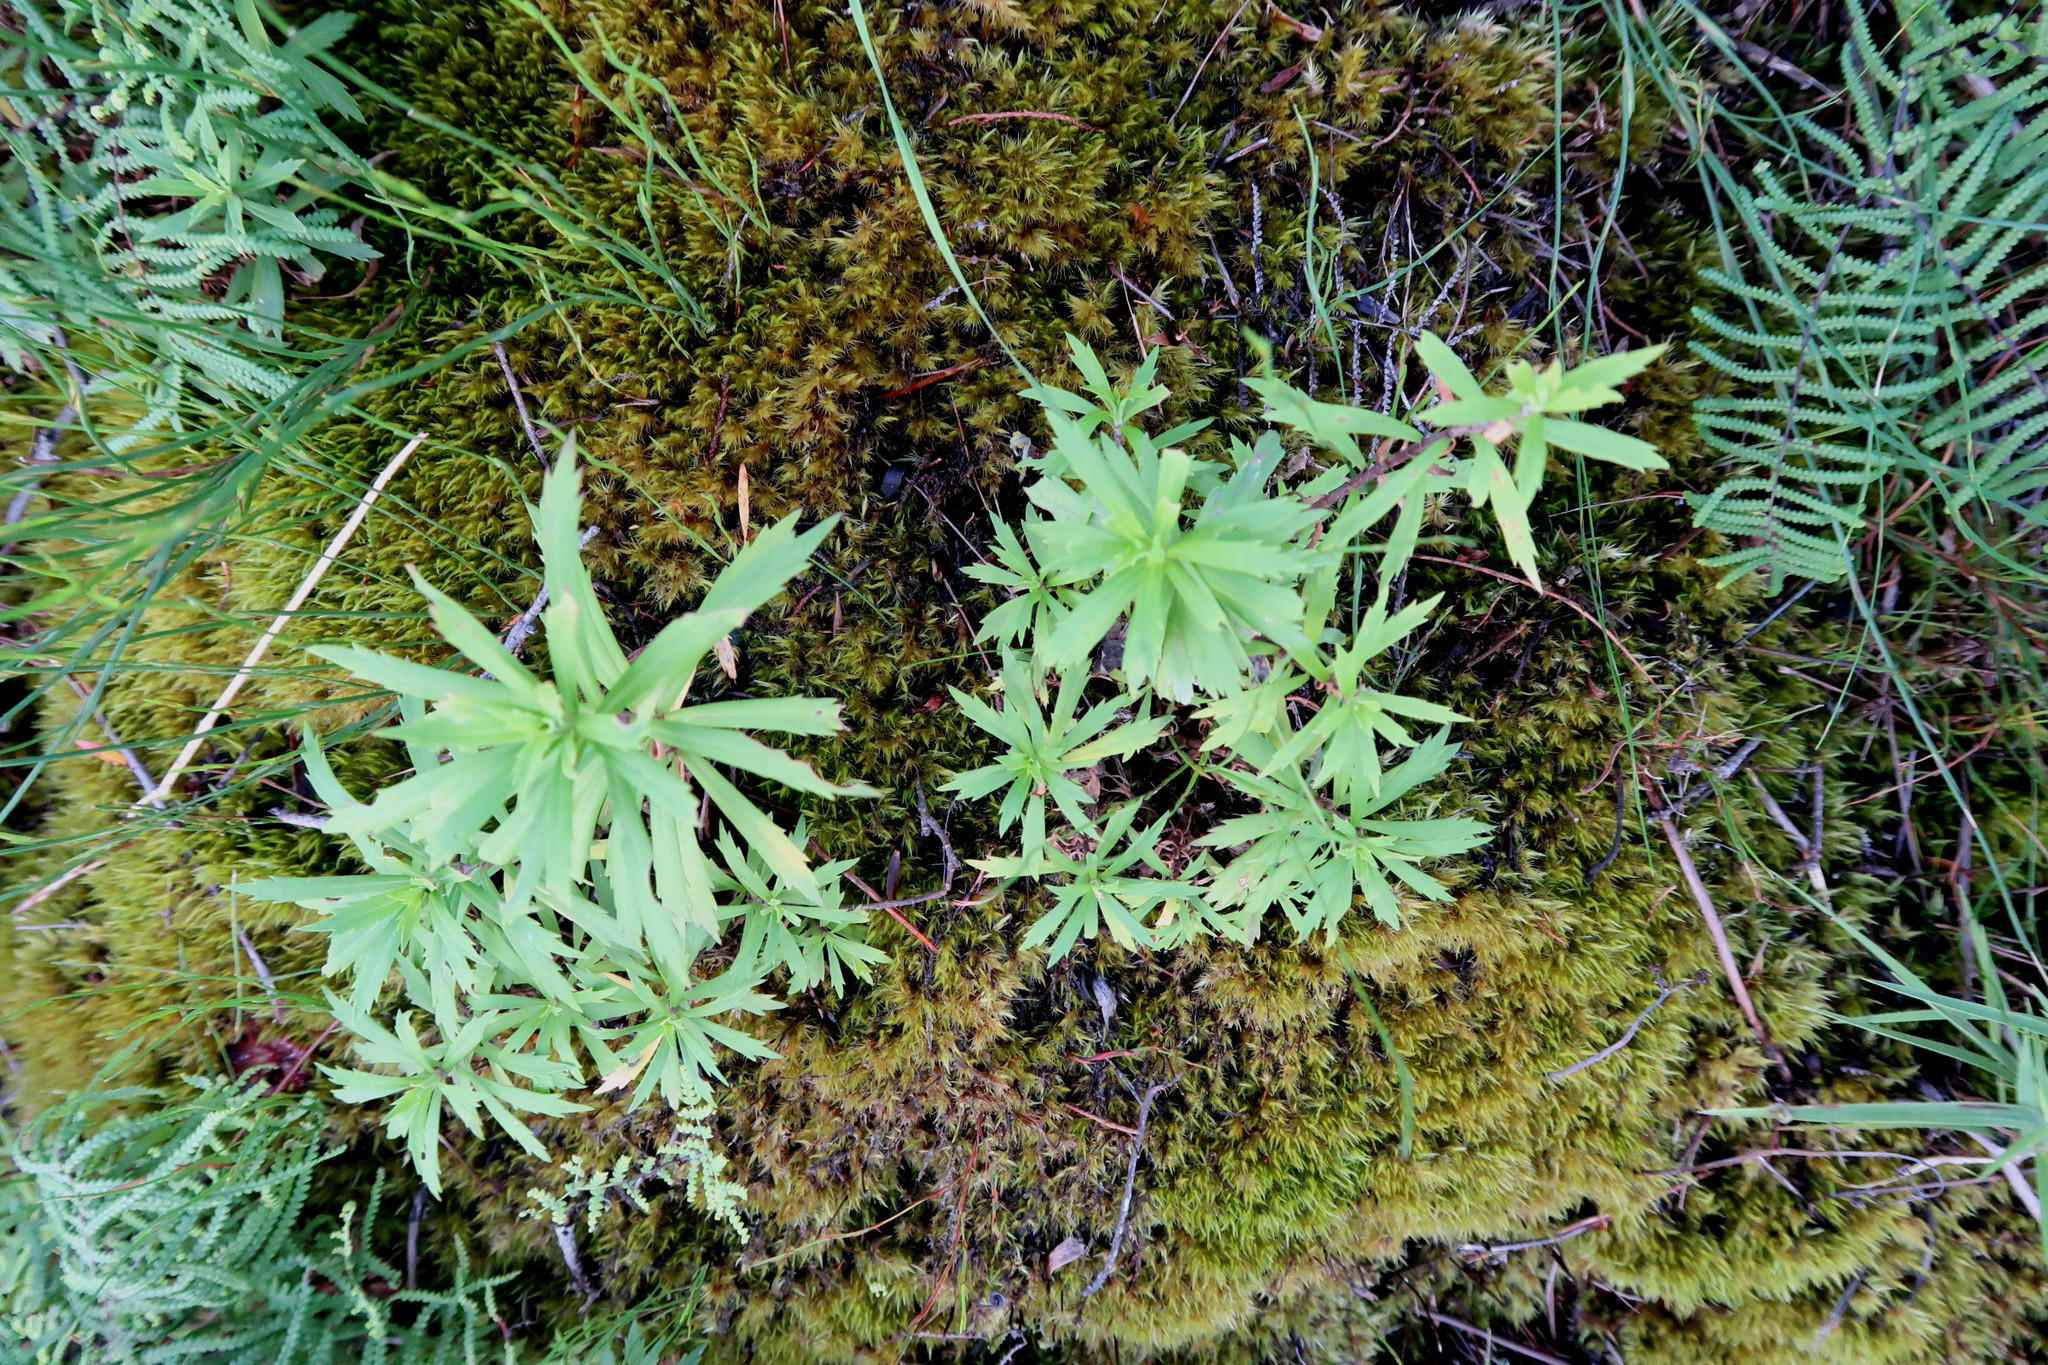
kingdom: Plantae
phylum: Tracheophyta
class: Magnoliopsida
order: Asterales
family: Asteraceae
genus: Osmitopsis
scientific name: Osmitopsis osmitoides
